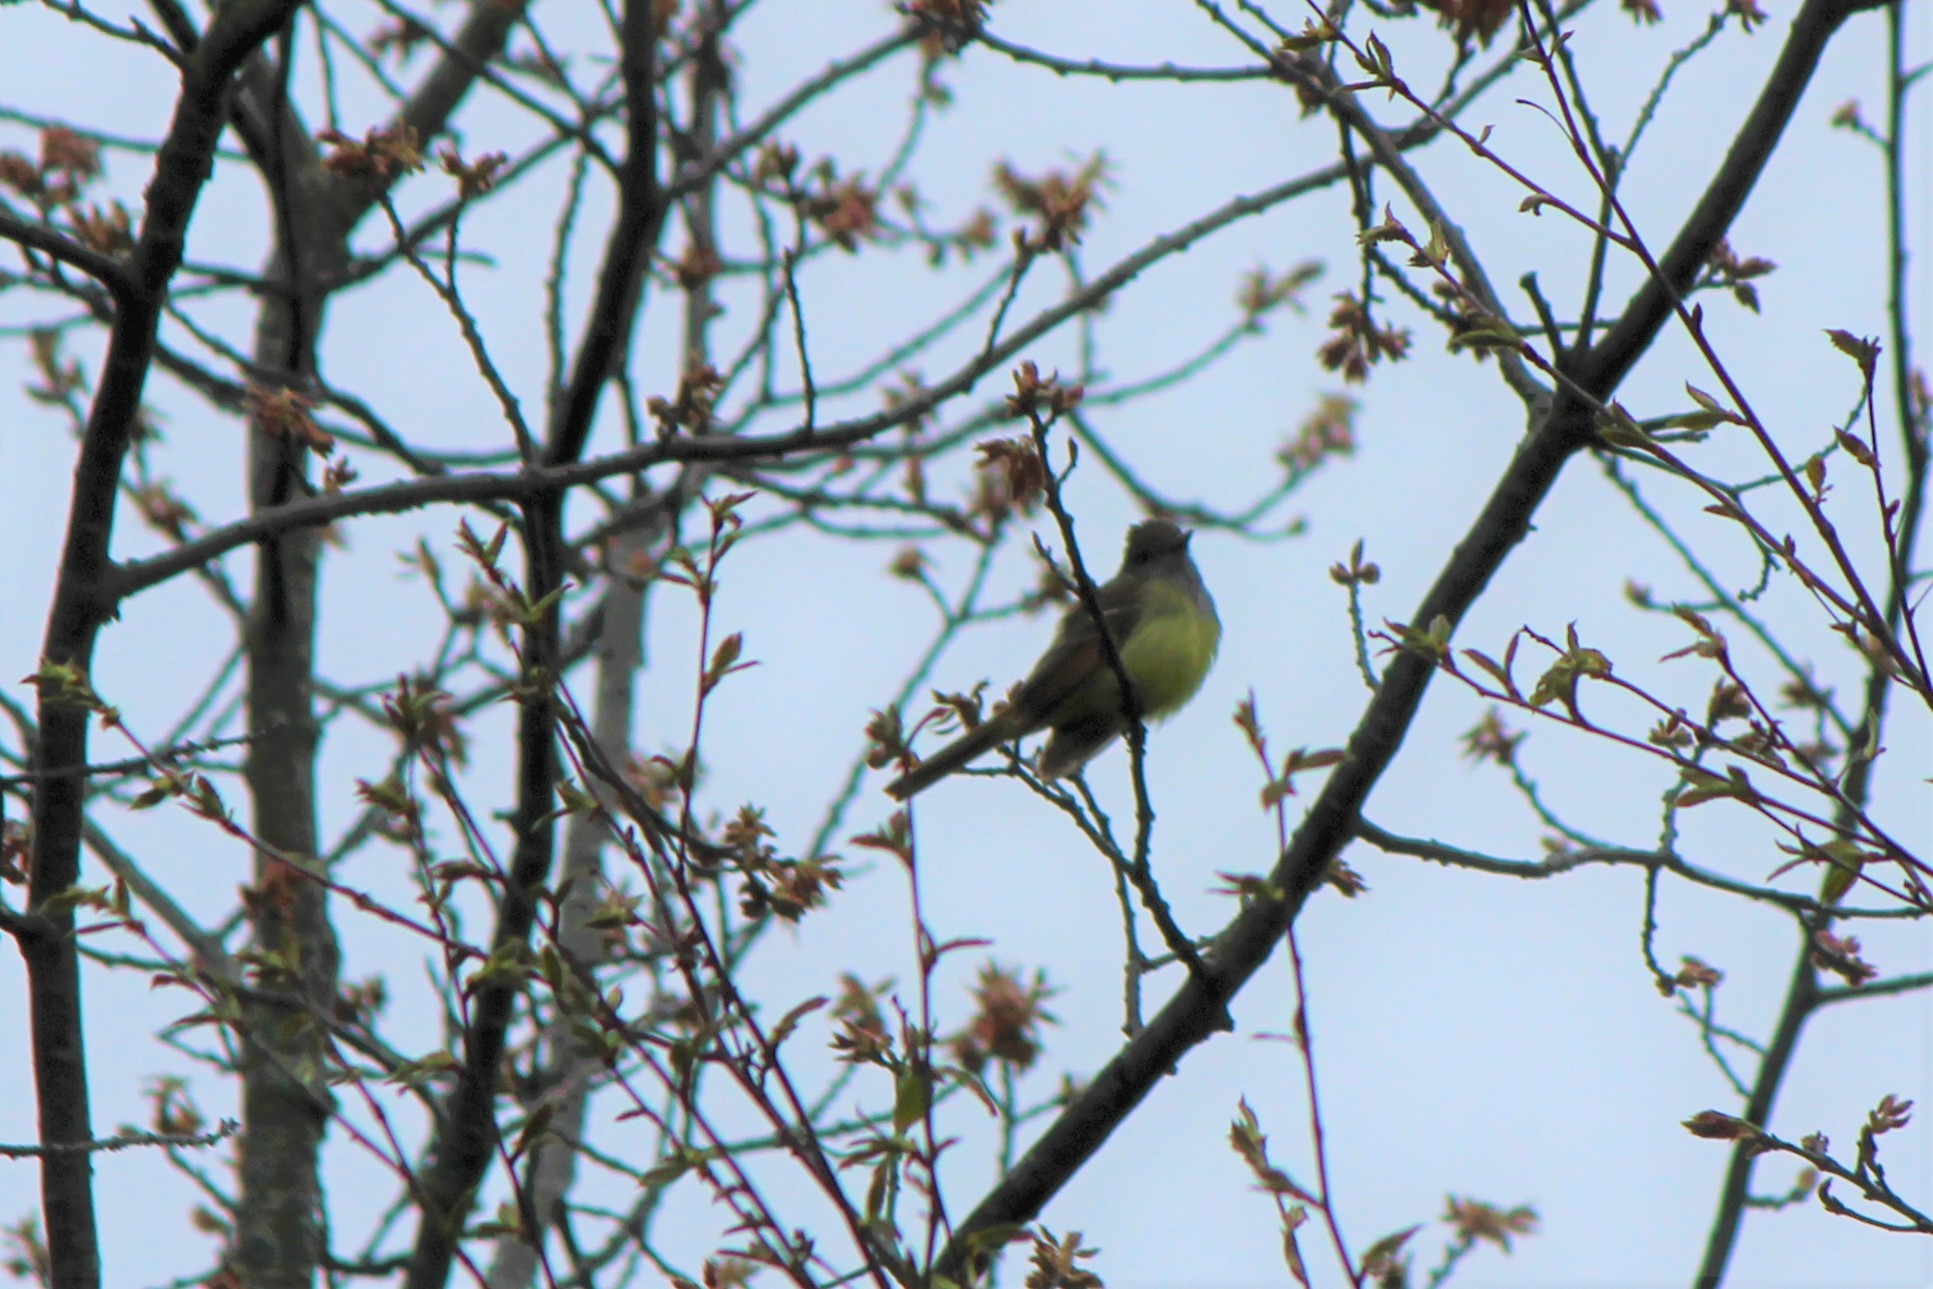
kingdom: Animalia
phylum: Chordata
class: Aves
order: Passeriformes
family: Tyrannidae
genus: Myiarchus
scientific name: Myiarchus crinitus
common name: Great crested flycatcher
